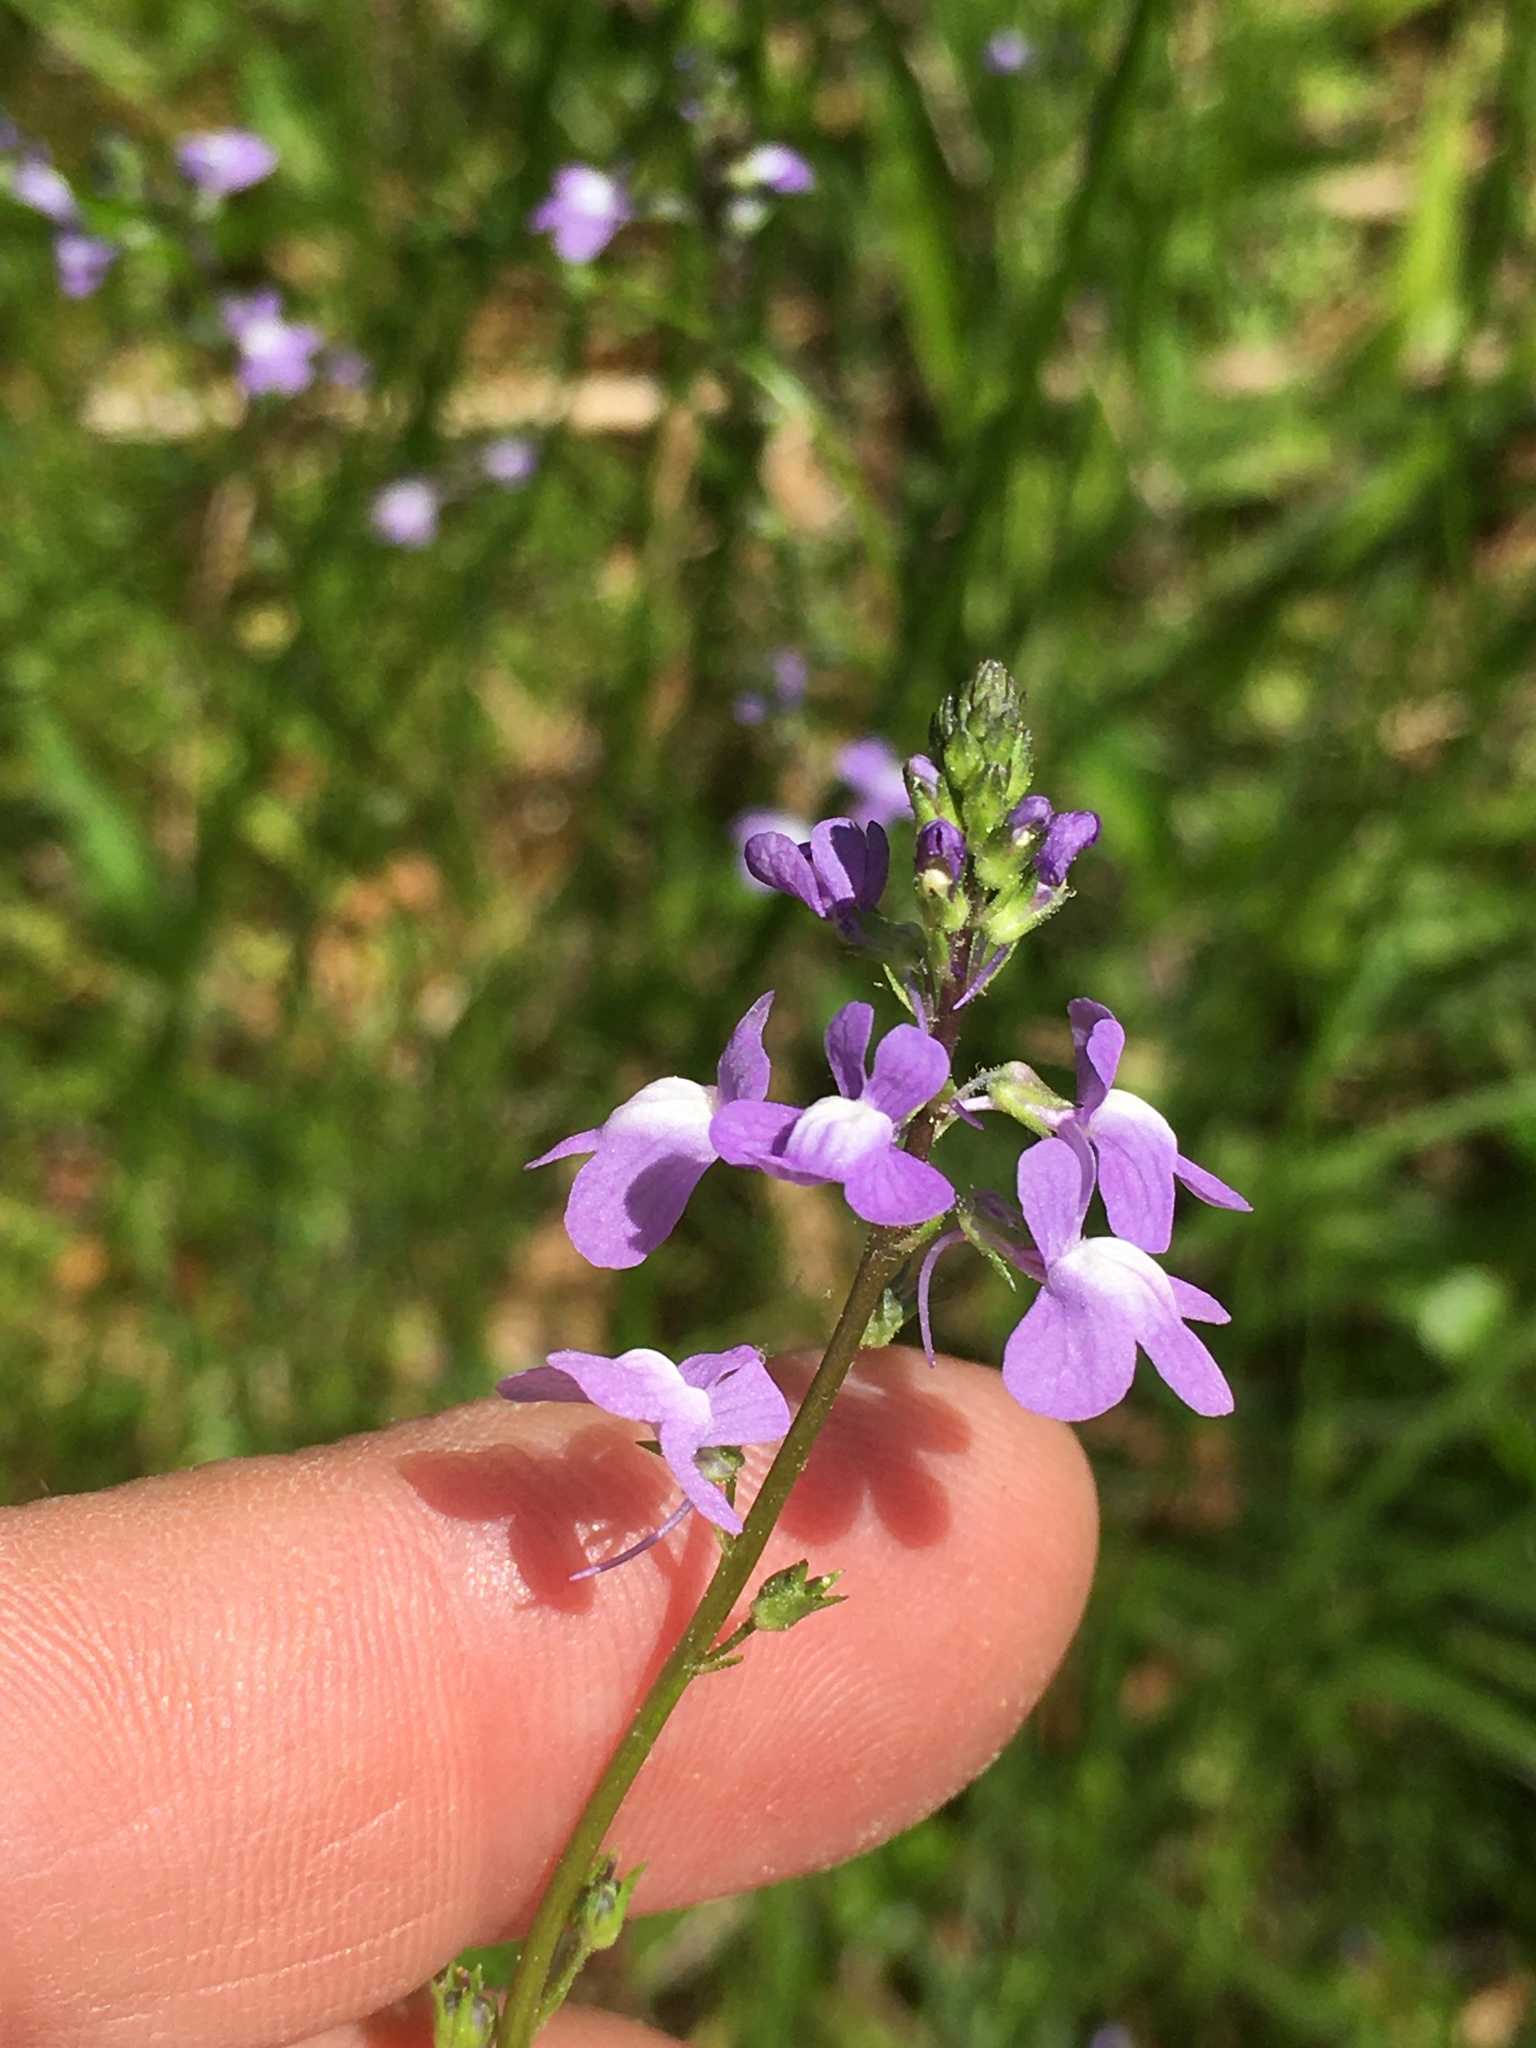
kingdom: Plantae
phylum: Tracheophyta
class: Magnoliopsida
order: Lamiales
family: Plantaginaceae
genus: Nuttallanthus
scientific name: Nuttallanthus canadensis
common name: Blue toadflax
